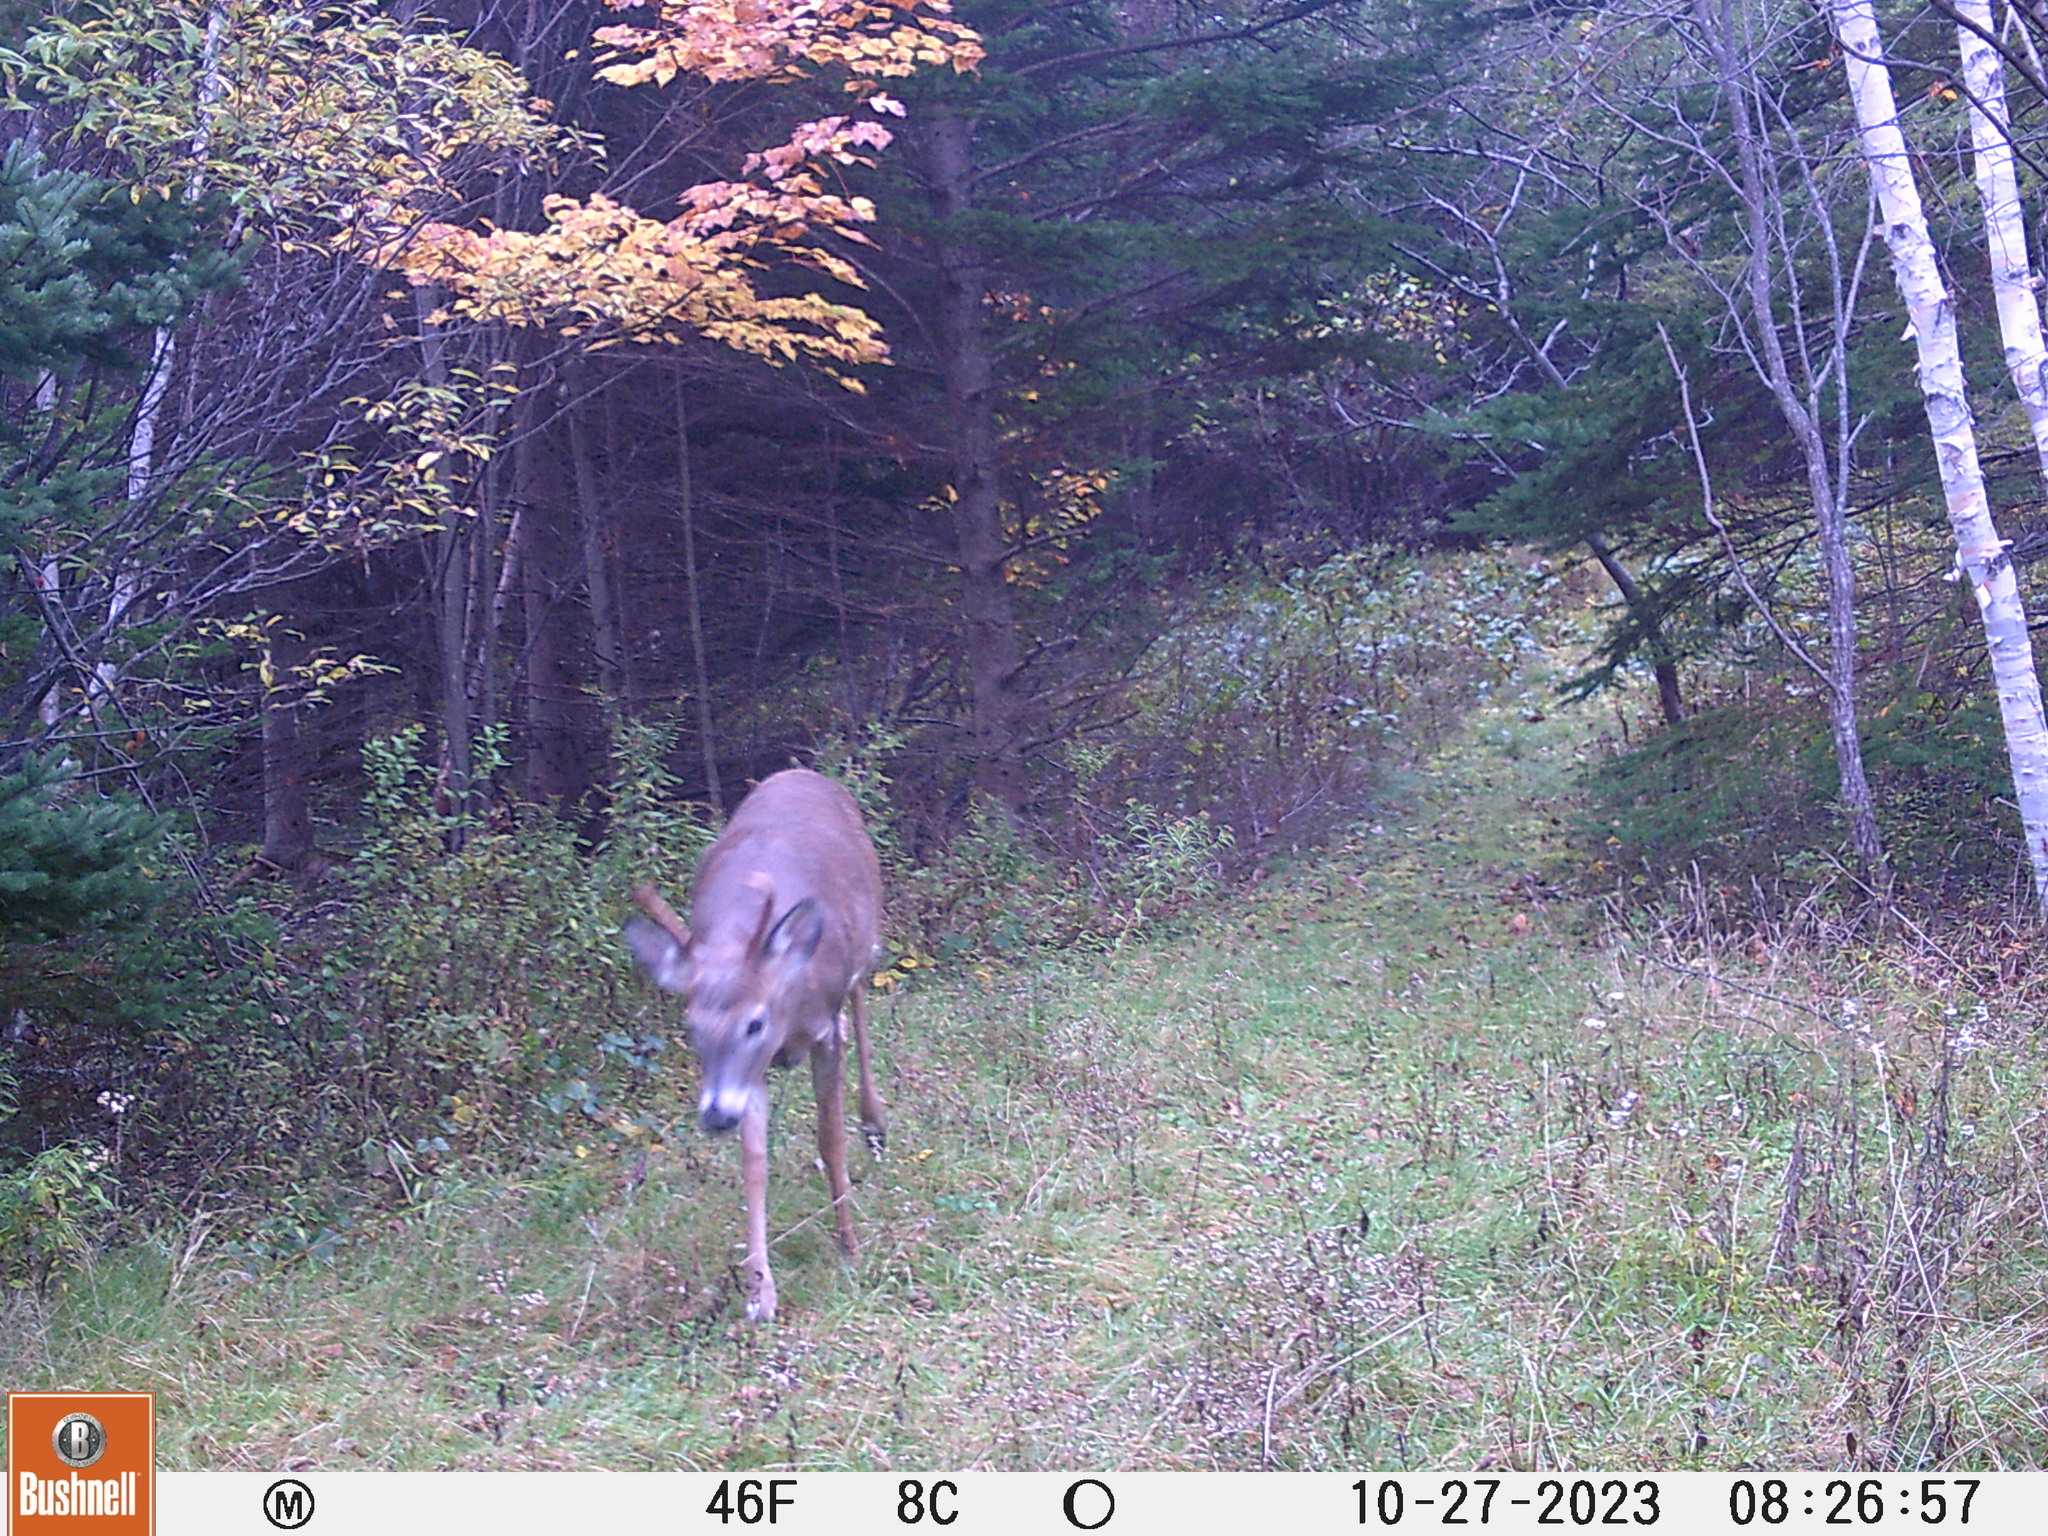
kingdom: Animalia
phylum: Chordata
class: Mammalia
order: Artiodactyla
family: Cervidae
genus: Odocoileus
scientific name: Odocoileus virginianus
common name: White-tailed deer
